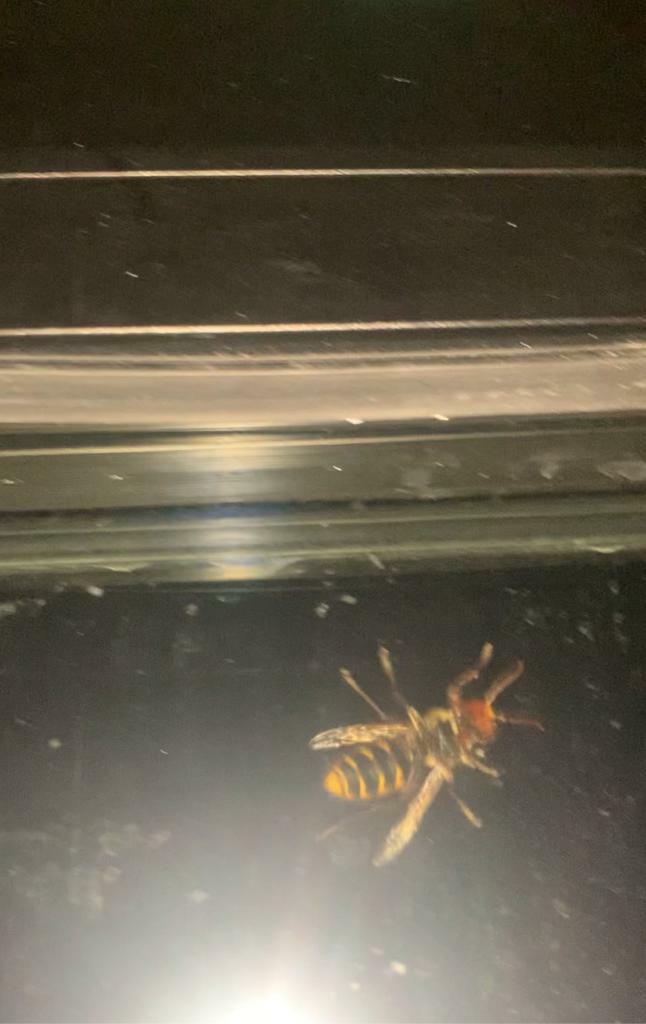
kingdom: Animalia
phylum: Arthropoda
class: Insecta
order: Hymenoptera
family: Vespidae
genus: Vespa
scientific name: Vespa crabro
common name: Hornet
